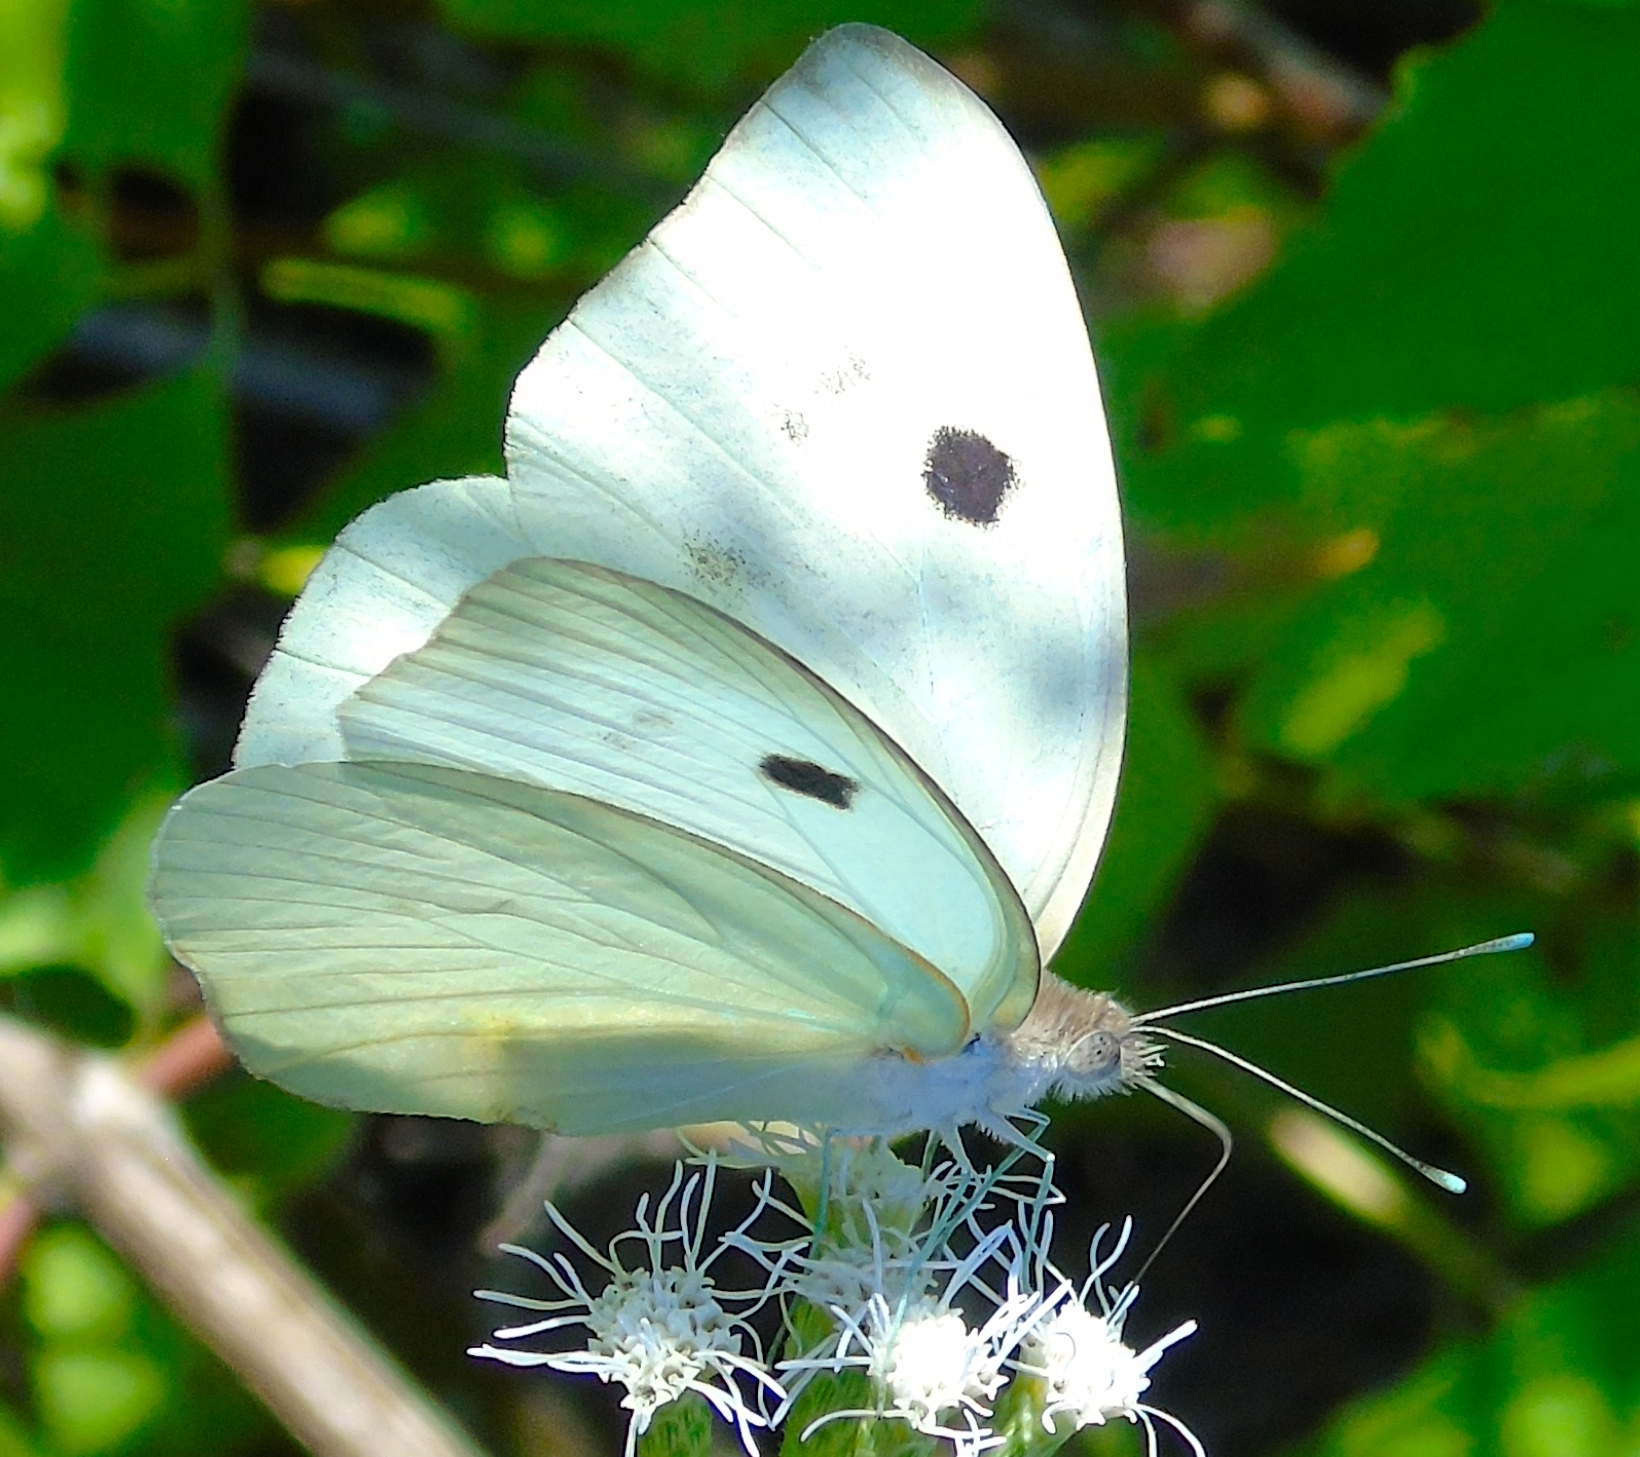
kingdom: Animalia
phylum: Arthropoda
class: Insecta
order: Lepidoptera
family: Pieridae
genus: Ganyra
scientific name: Ganyra josephina
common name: Giant white
